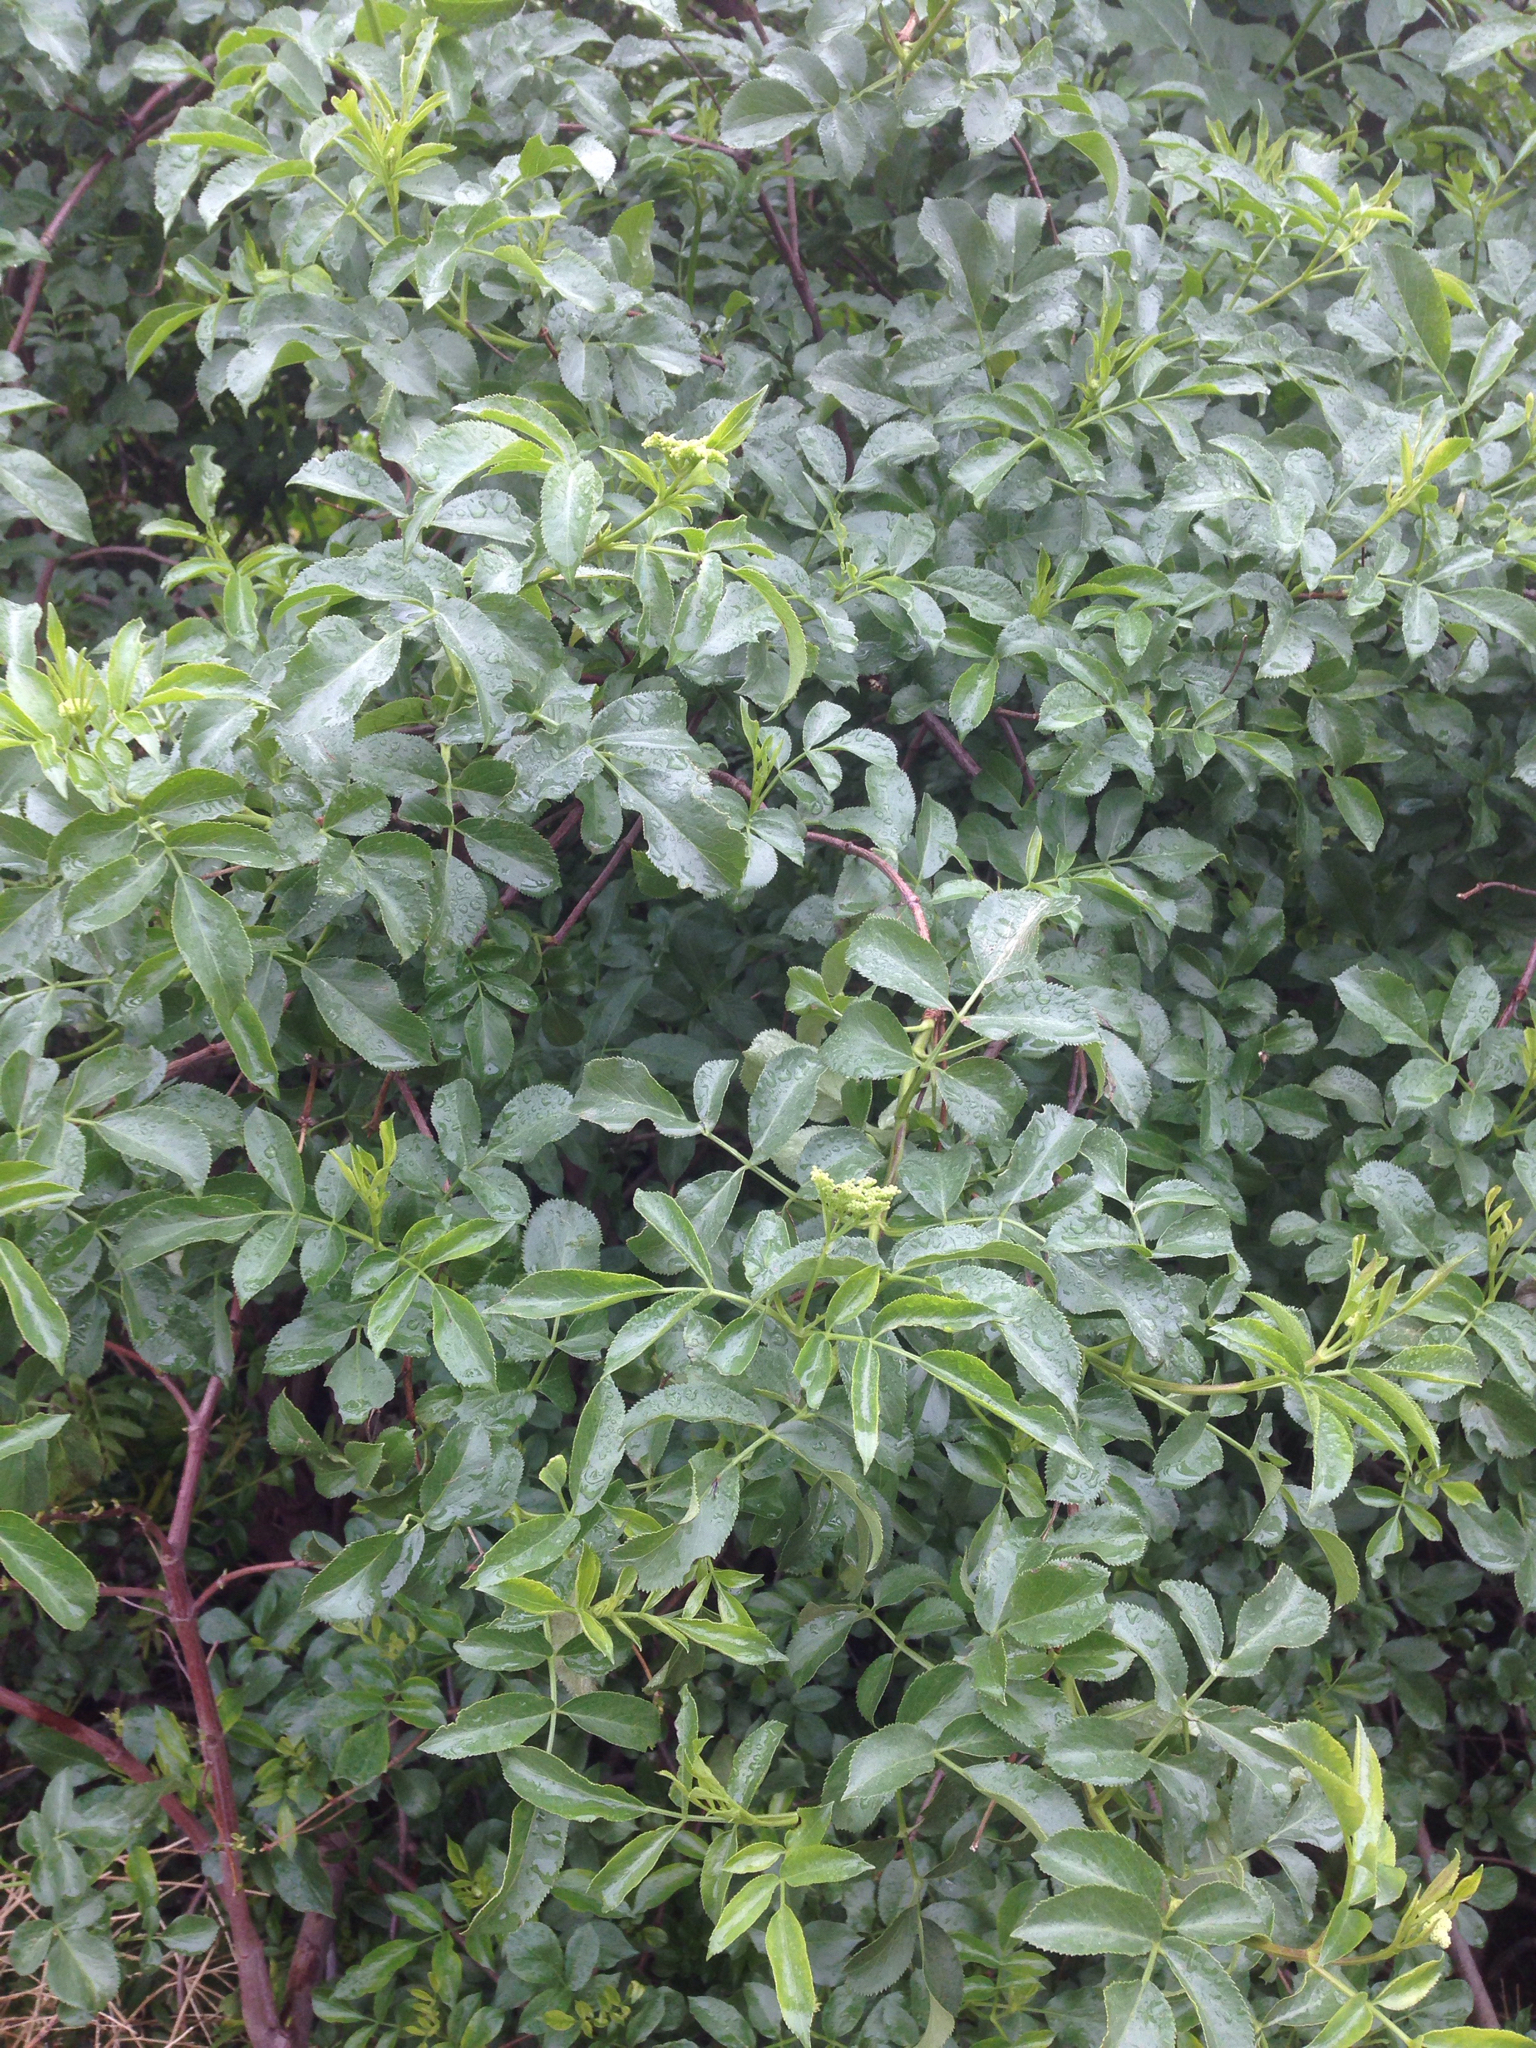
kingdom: Plantae
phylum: Tracheophyta
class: Magnoliopsida
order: Dipsacales
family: Viburnaceae
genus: Sambucus
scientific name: Sambucus cerulea
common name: Blue elder
